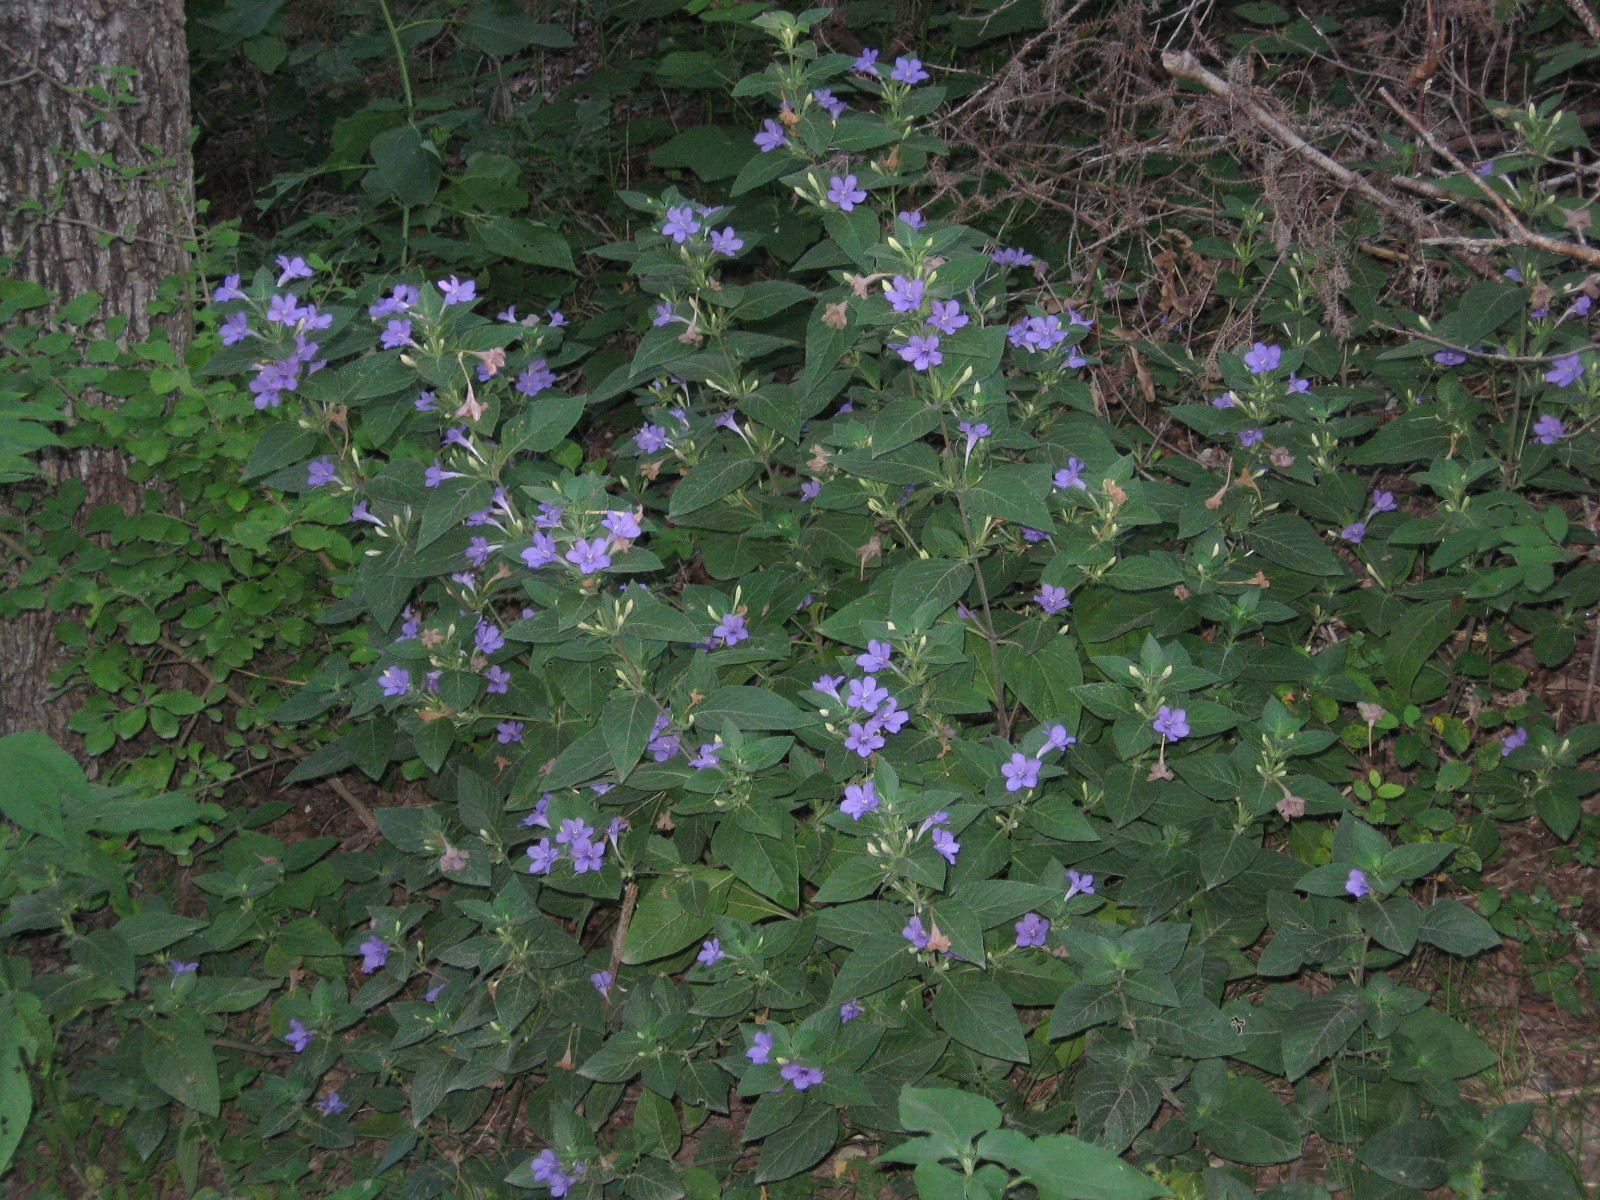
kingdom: Plantae
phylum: Tracheophyta
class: Magnoliopsida
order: Lamiales
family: Acanthaceae
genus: Ruellia
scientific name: Ruellia drummondiana
